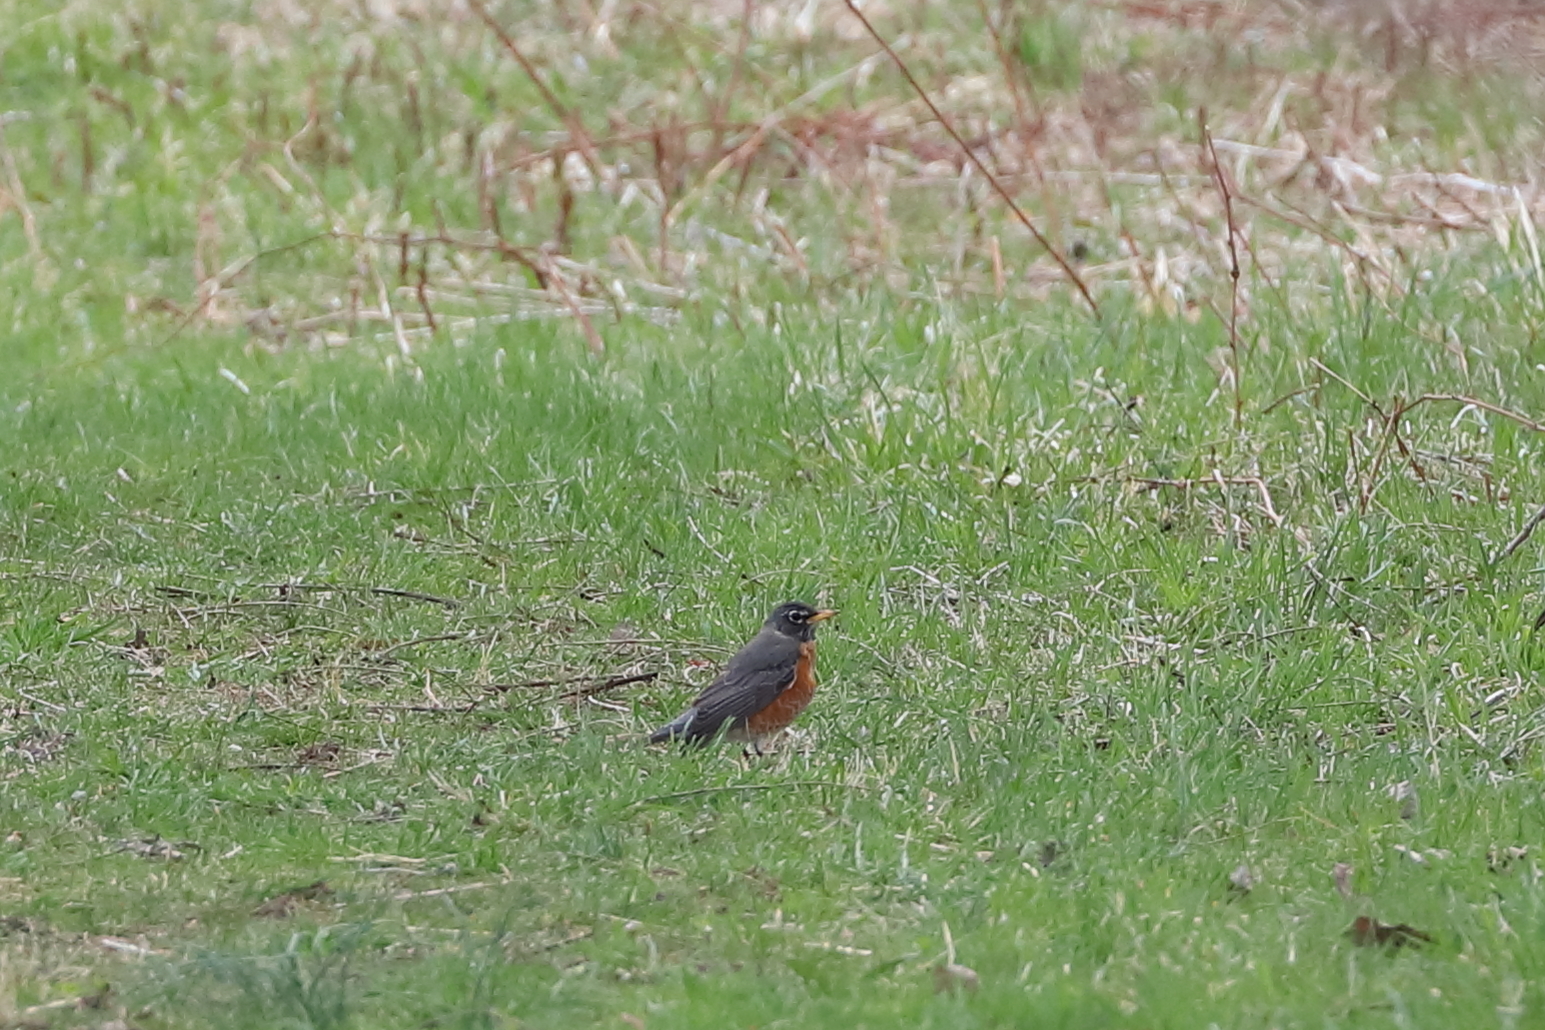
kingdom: Animalia
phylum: Chordata
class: Aves
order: Passeriformes
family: Turdidae
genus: Turdus
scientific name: Turdus migratorius
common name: American robin
